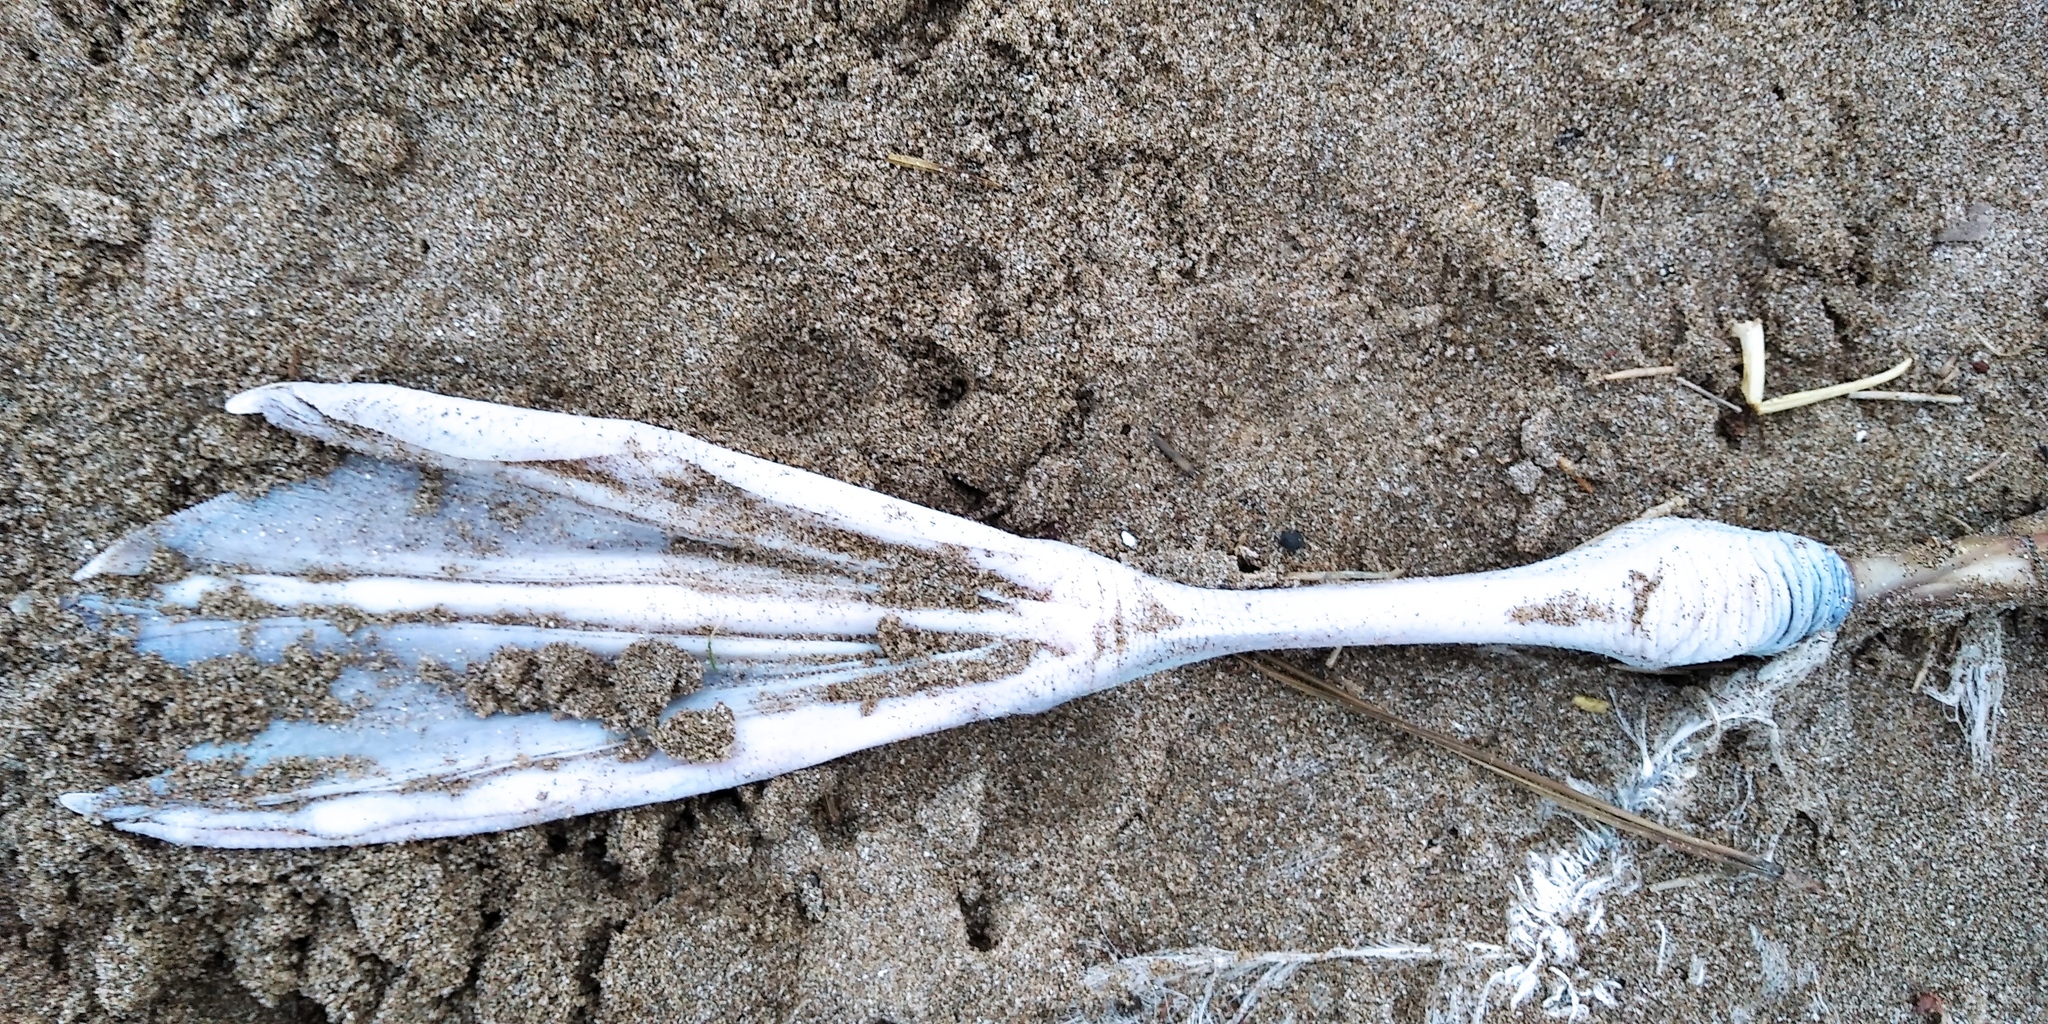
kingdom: Animalia
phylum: Chordata
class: Aves
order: Procellariiformes
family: Diomedeidae
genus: Thalassarche
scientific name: Thalassarche melanophris
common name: Black-browed albatross
